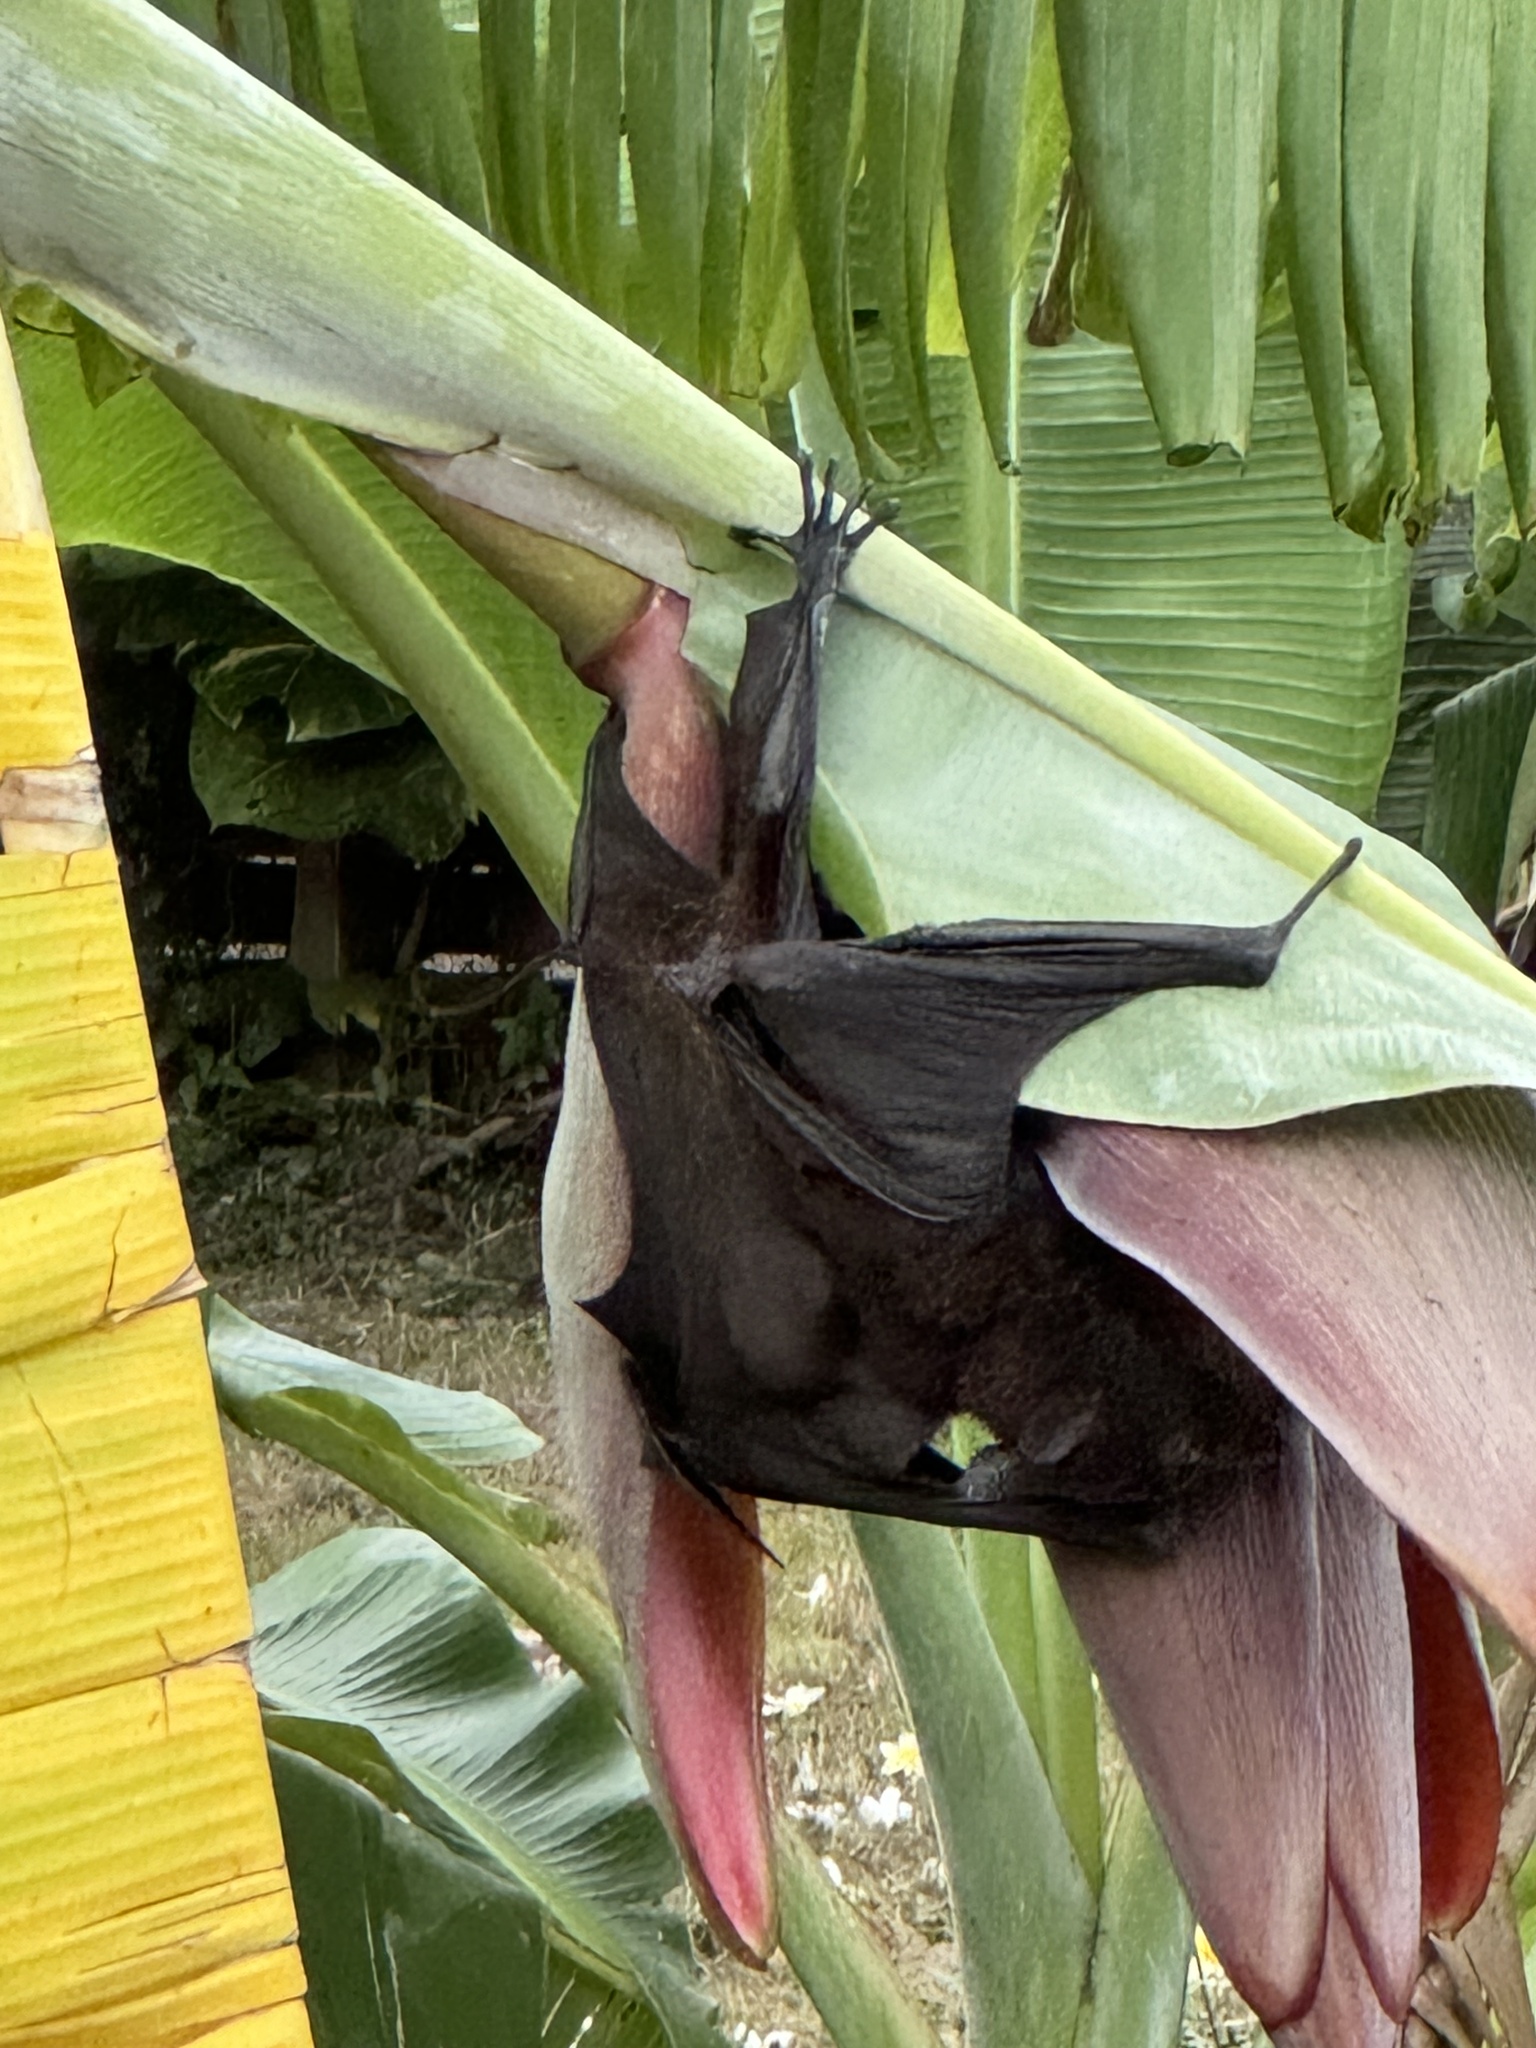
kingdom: Animalia
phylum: Chordata
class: Mammalia
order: Chiroptera
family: Pteropodidae
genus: Pteropus
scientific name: Pteropus alecto
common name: Black flying fox
